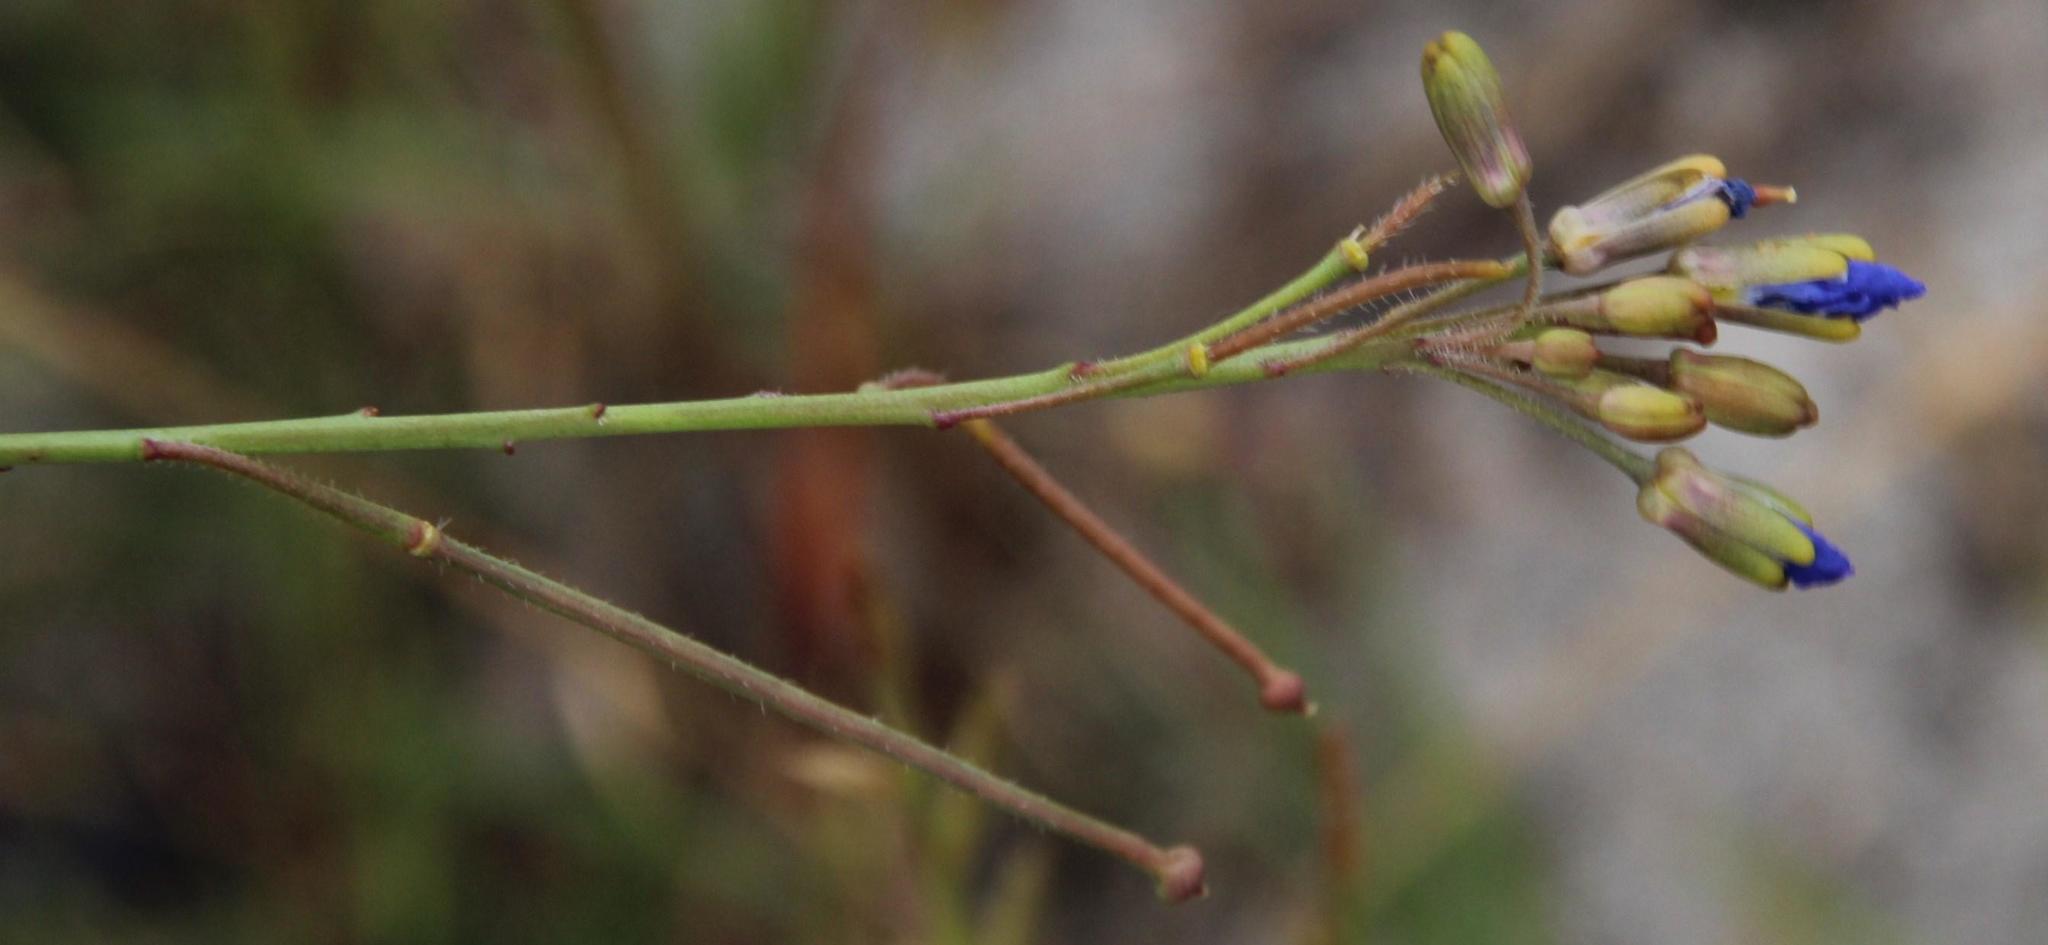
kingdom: Plantae
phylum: Tracheophyta
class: Magnoliopsida
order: Brassicales
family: Brassicaceae
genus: Heliophila
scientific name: Heliophila africana
